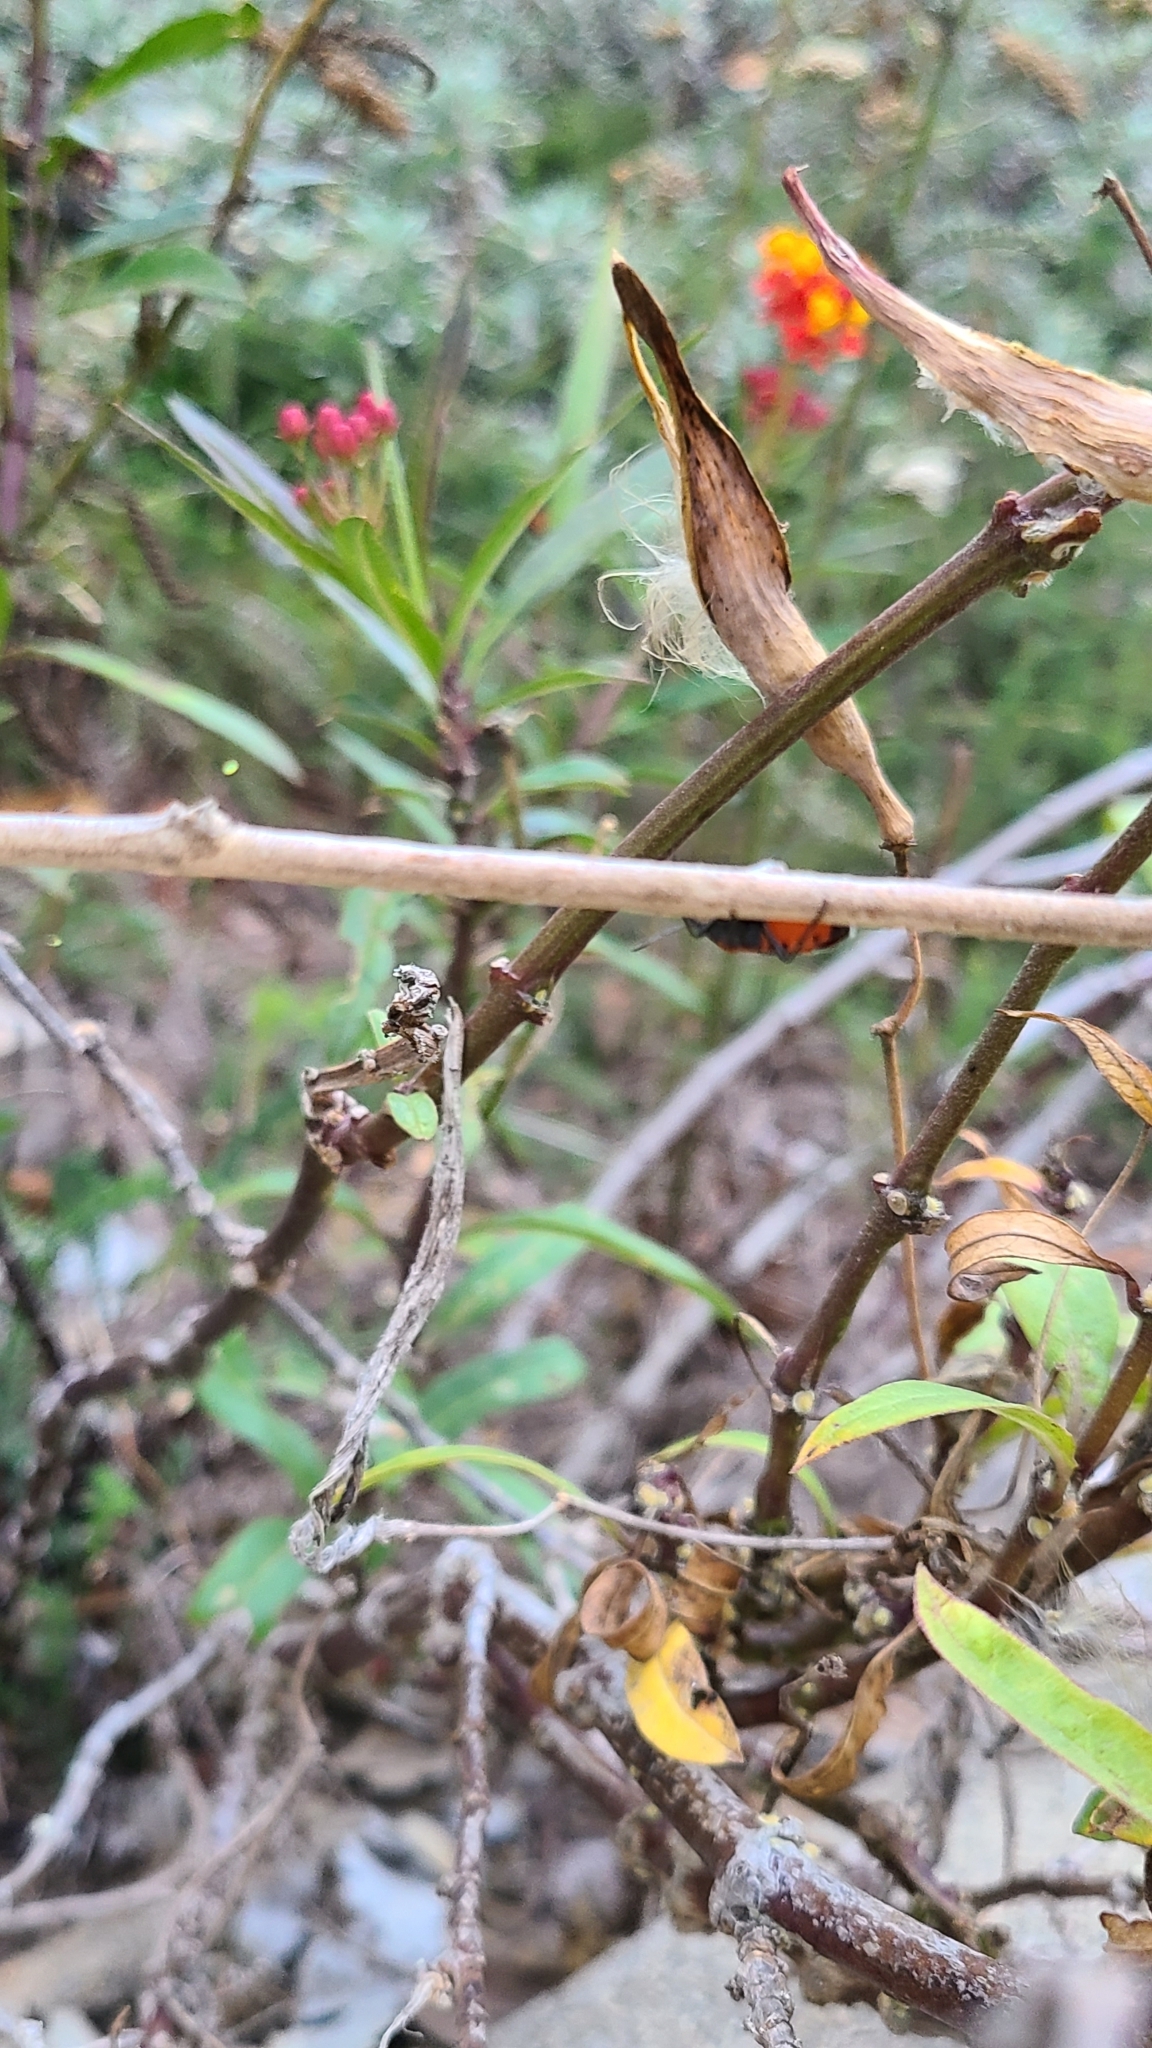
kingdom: Animalia
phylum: Arthropoda
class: Insecta
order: Hemiptera
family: Lygaeidae
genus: Lygaeus
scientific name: Lygaeus kalmii
